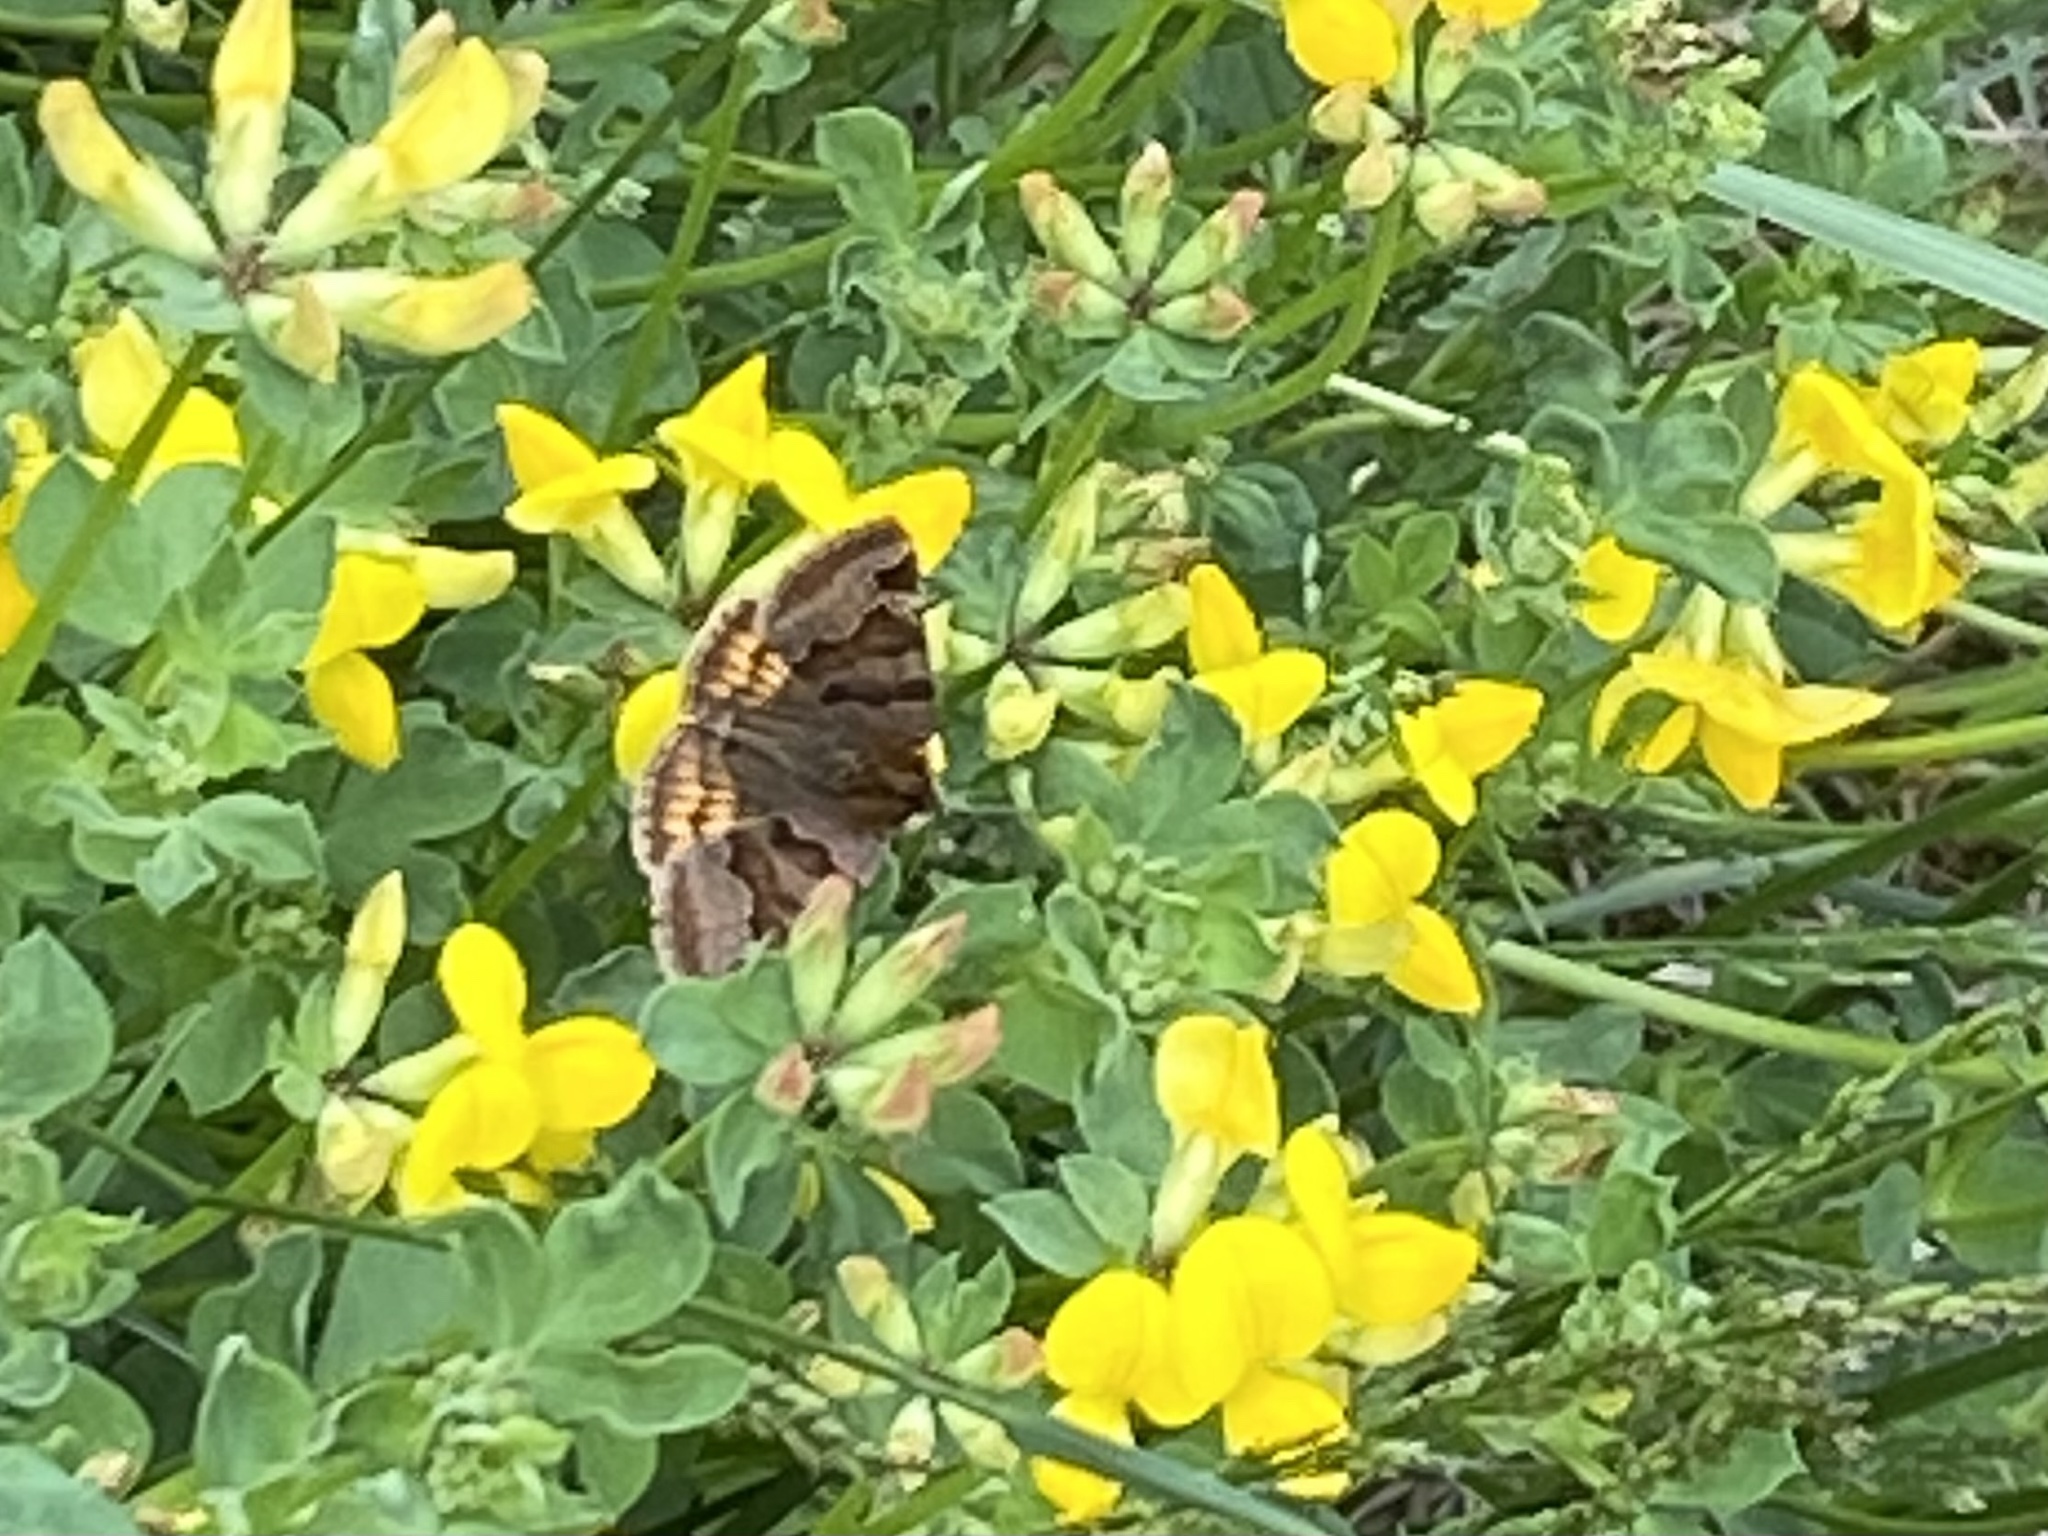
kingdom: Animalia
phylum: Arthropoda
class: Insecta
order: Lepidoptera
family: Erebidae
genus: Euclidia
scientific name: Euclidia glyphica
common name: Burnet companion
